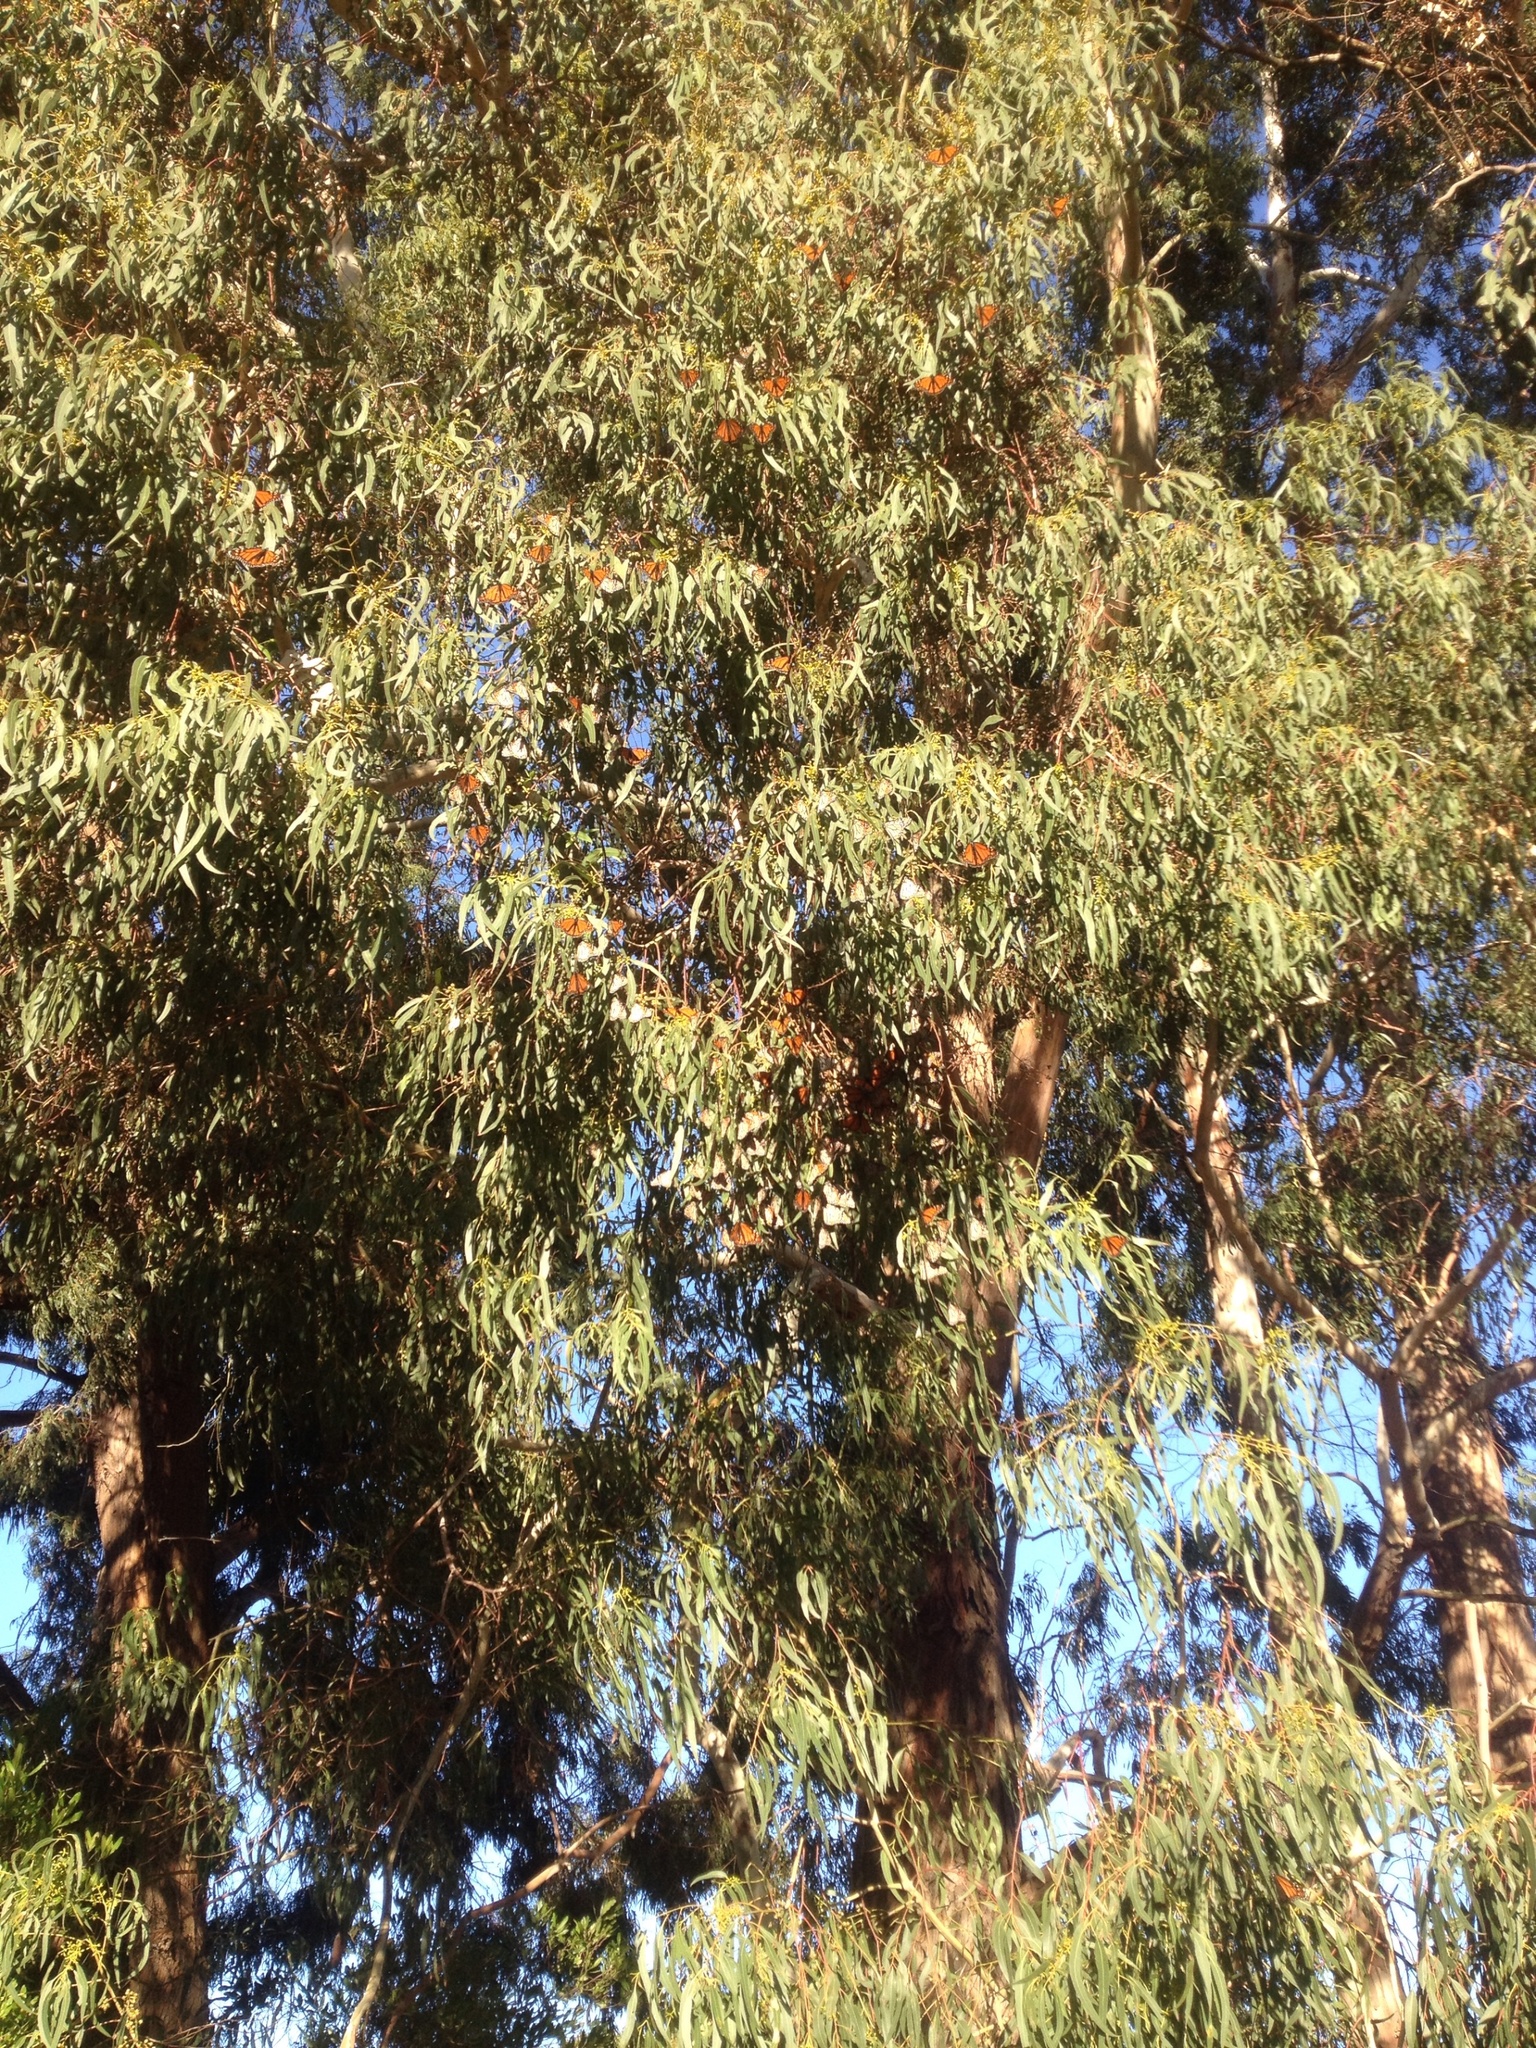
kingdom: Animalia
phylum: Arthropoda
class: Insecta
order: Lepidoptera
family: Nymphalidae
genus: Danaus
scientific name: Danaus plexippus
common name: Monarch
